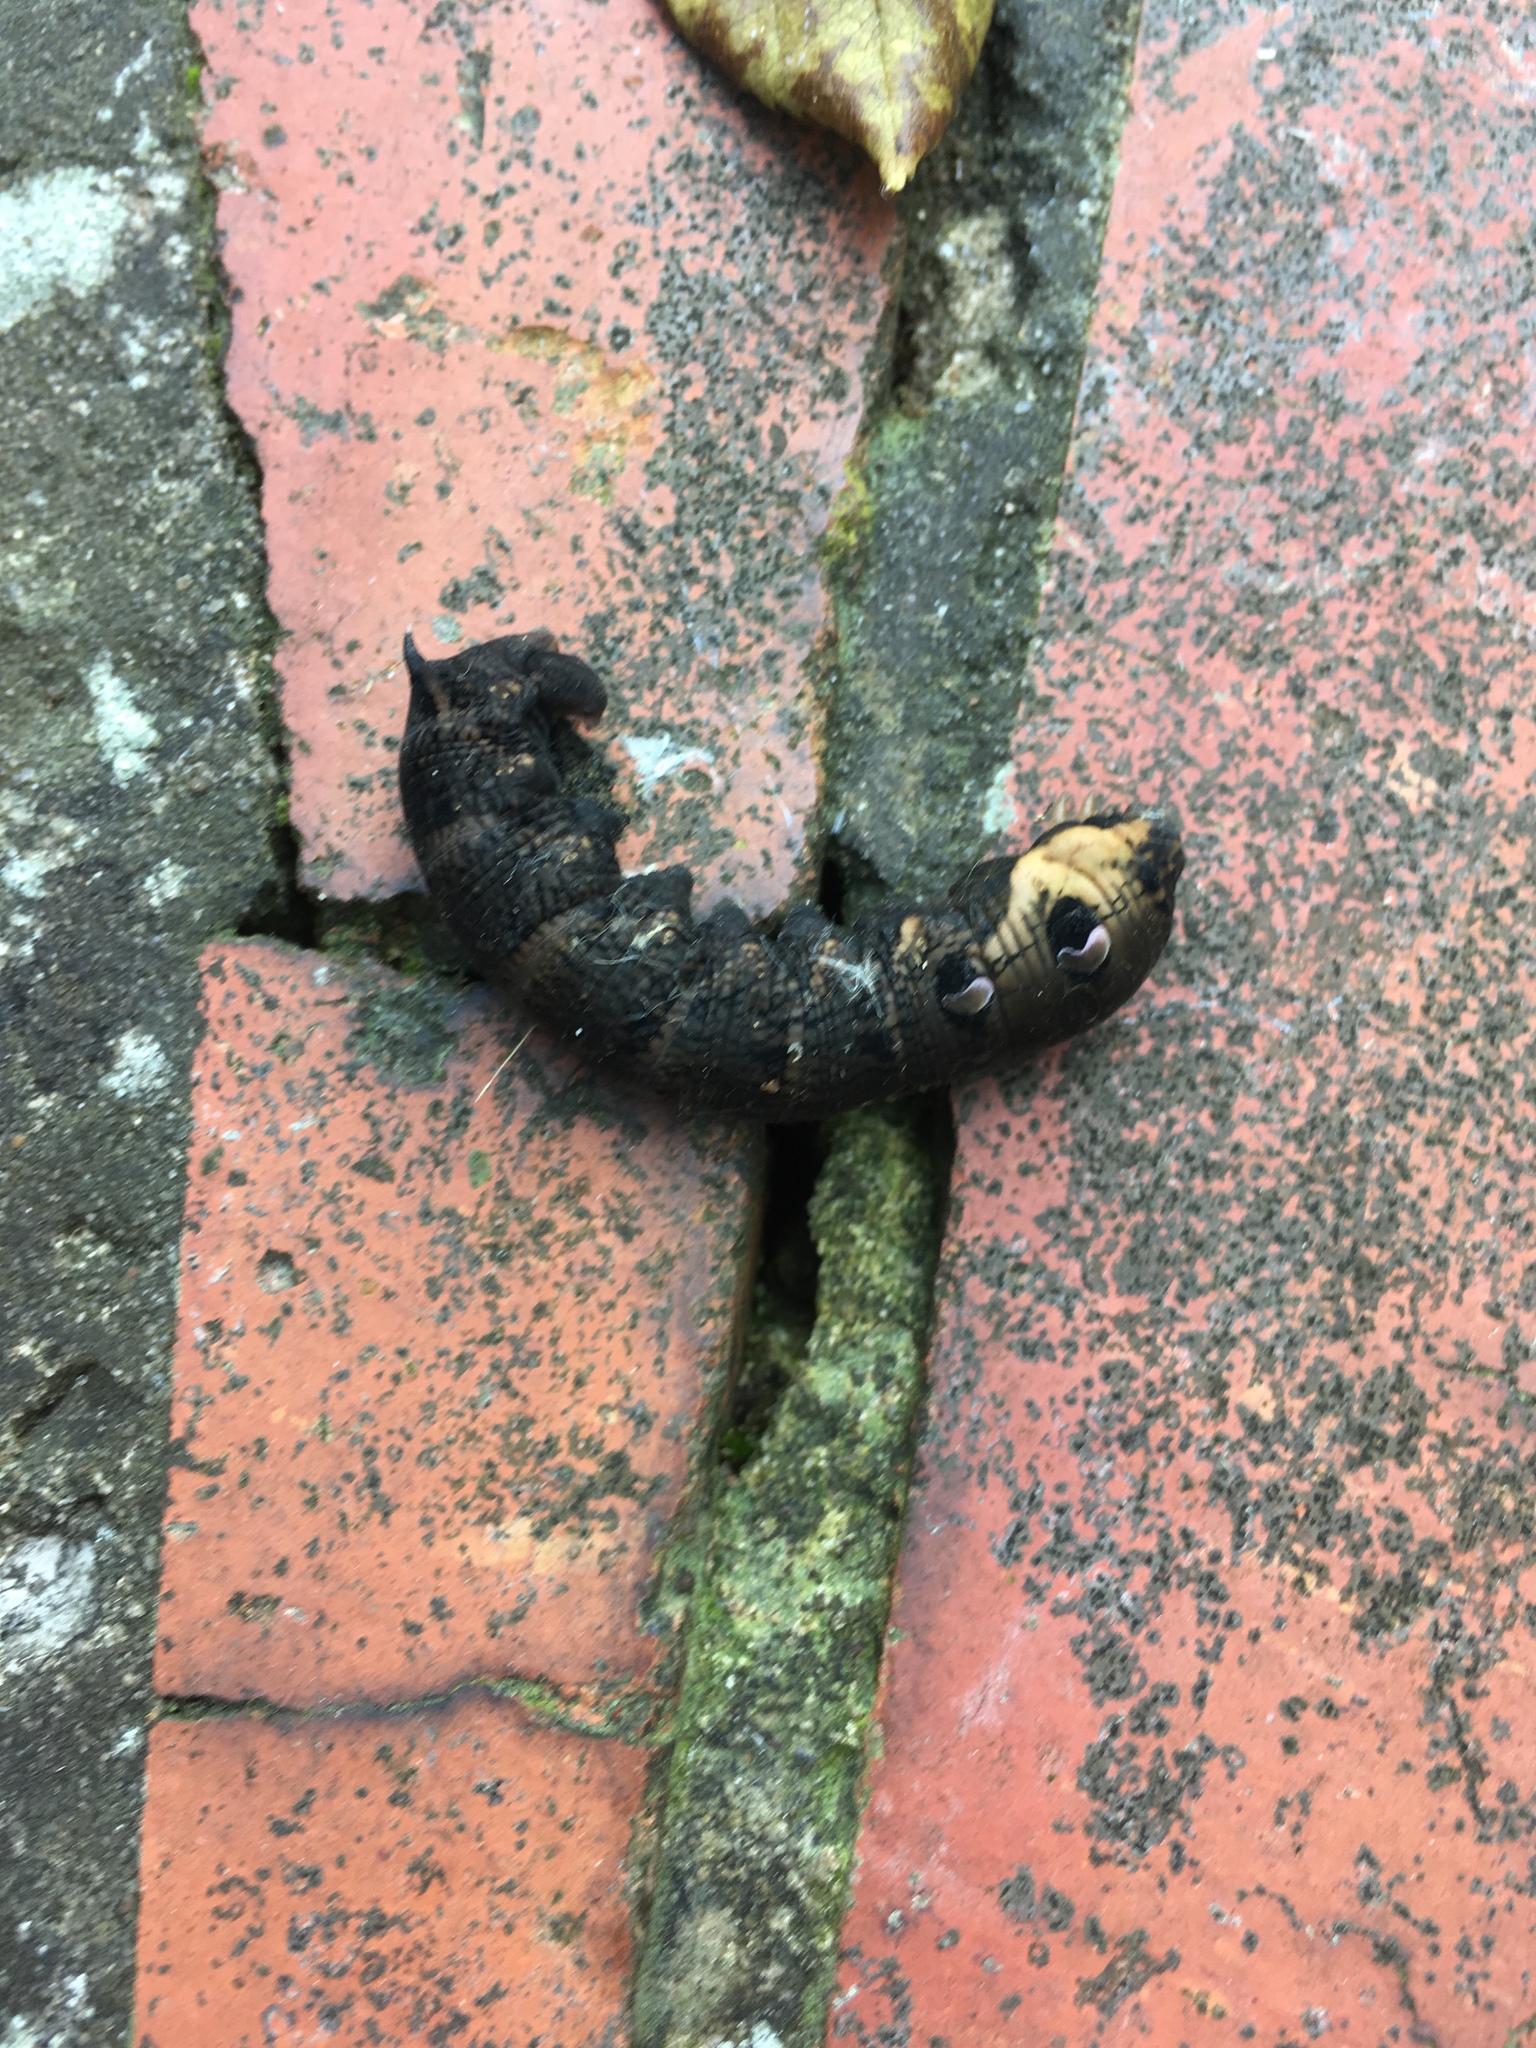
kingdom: Animalia
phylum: Arthropoda
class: Insecta
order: Lepidoptera
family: Sphingidae
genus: Deilephila
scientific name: Deilephila elpenor
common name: Elephant hawk-moth
